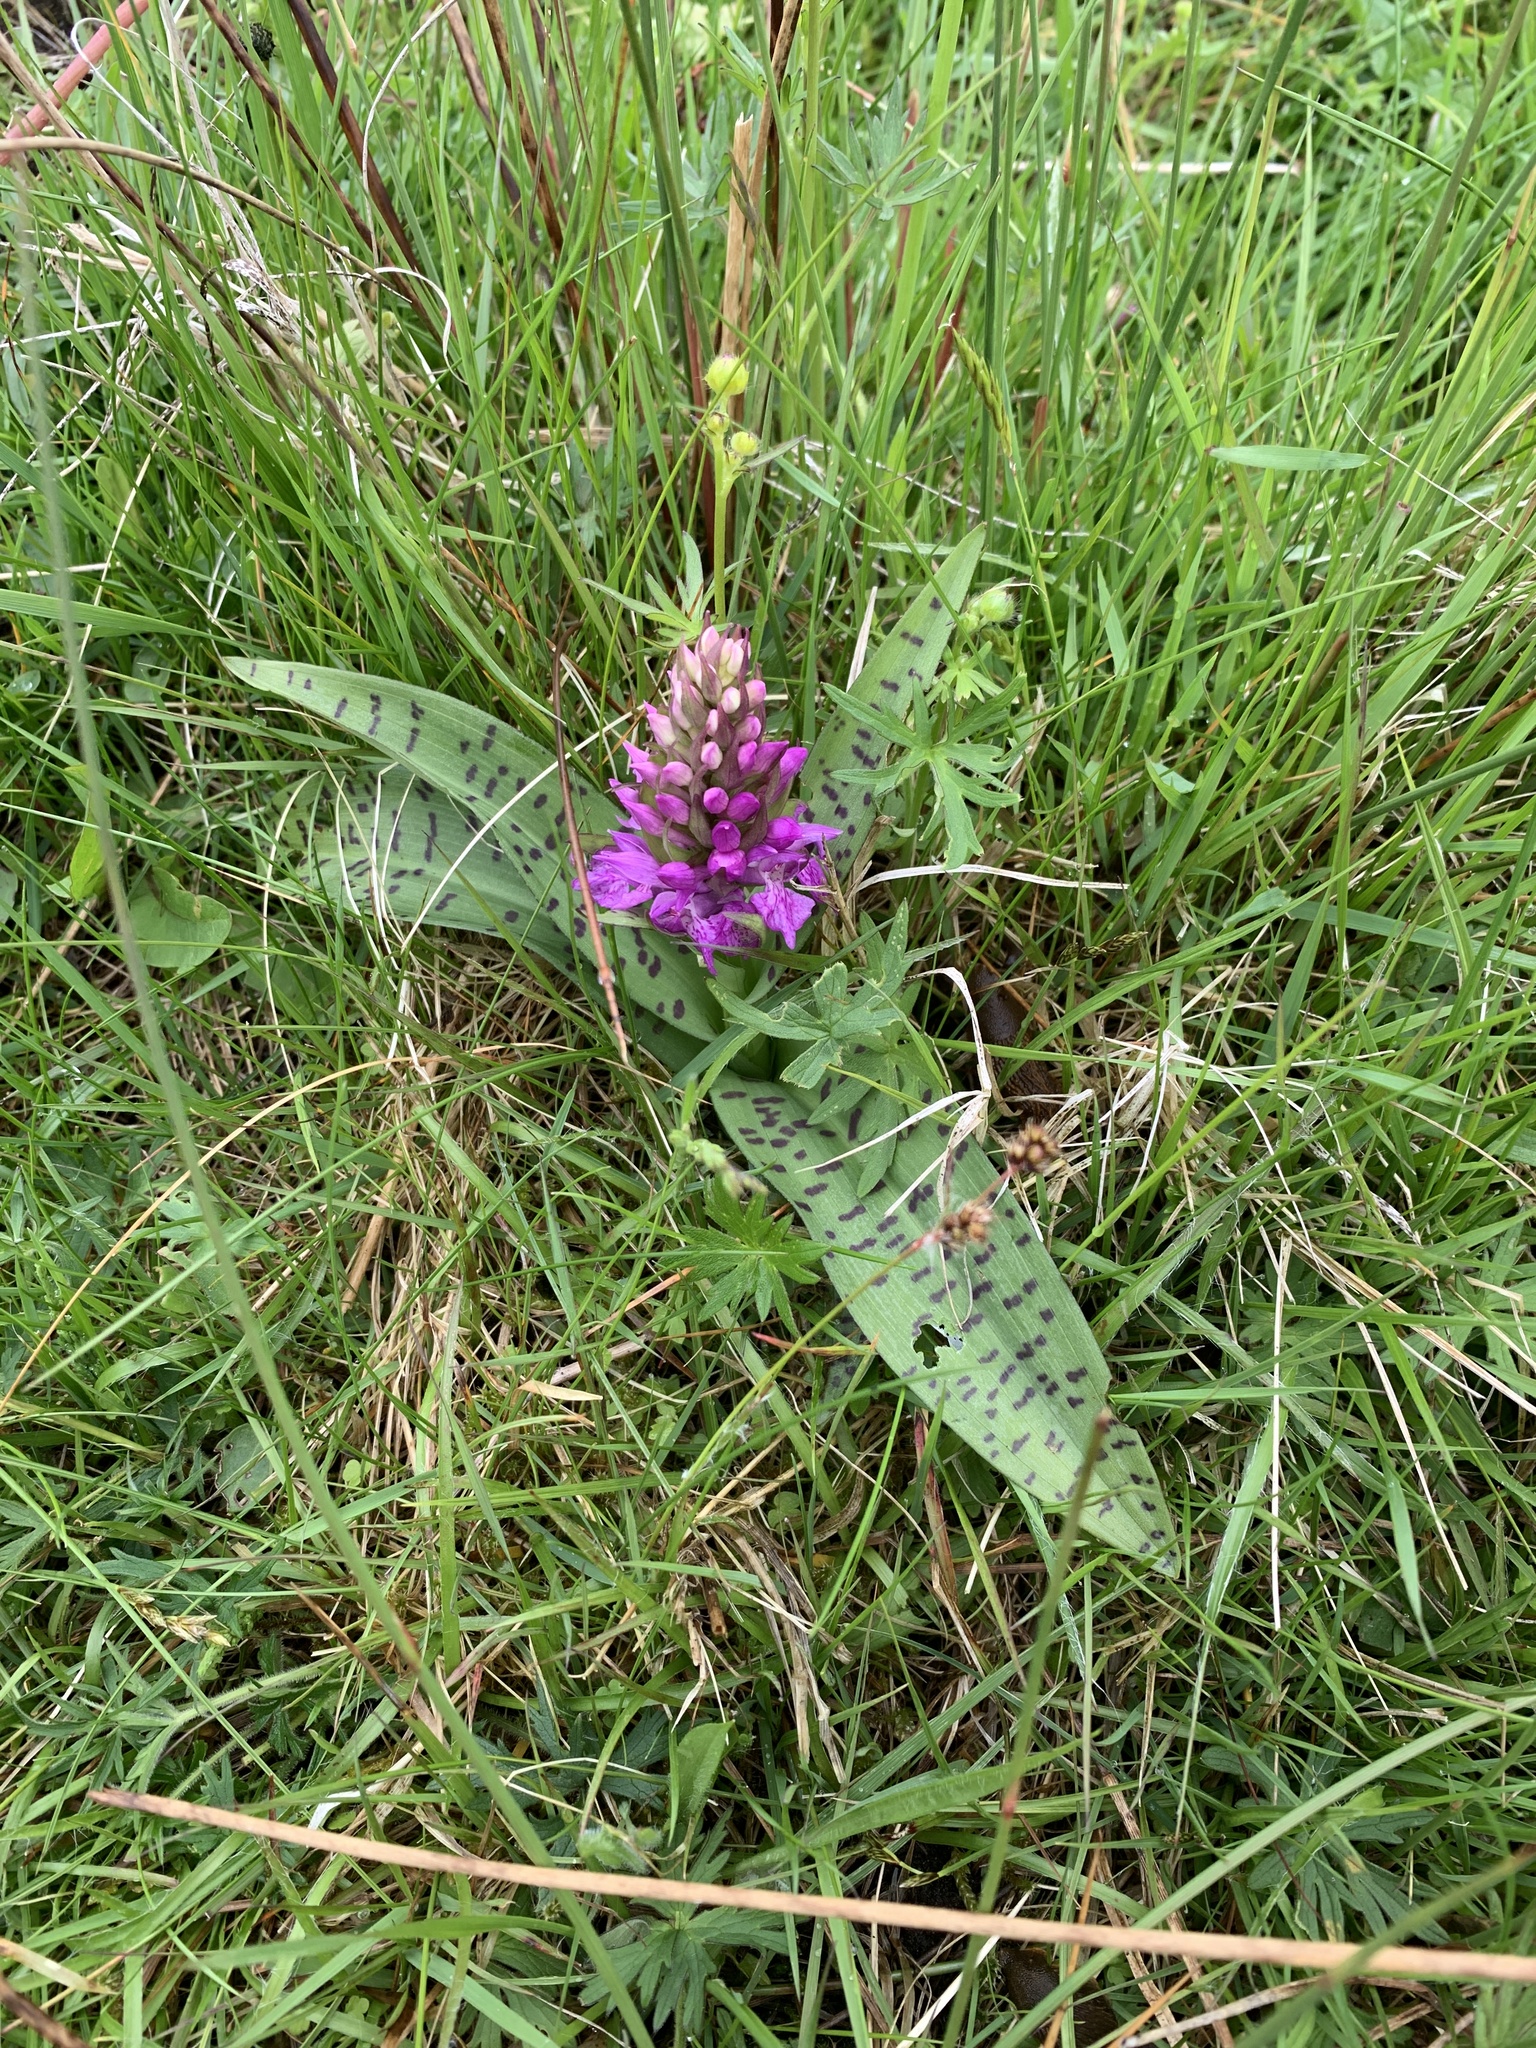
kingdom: Plantae
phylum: Tracheophyta
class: Liliopsida
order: Asparagales
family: Orchidaceae
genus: Dactylorhiza
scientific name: Dactylorhiza majalis
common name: Marsh orchid
